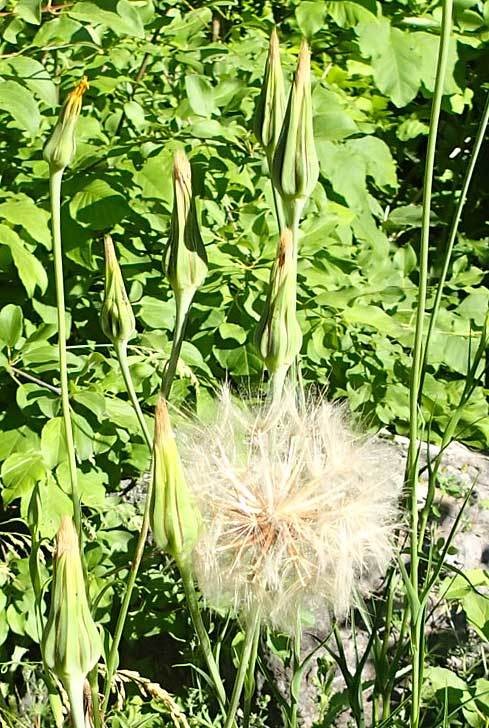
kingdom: Plantae
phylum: Tracheophyta
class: Magnoliopsida
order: Asterales
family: Asteraceae
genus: Tragopogon
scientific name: Tragopogon pratensis
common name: Goat's-beard
